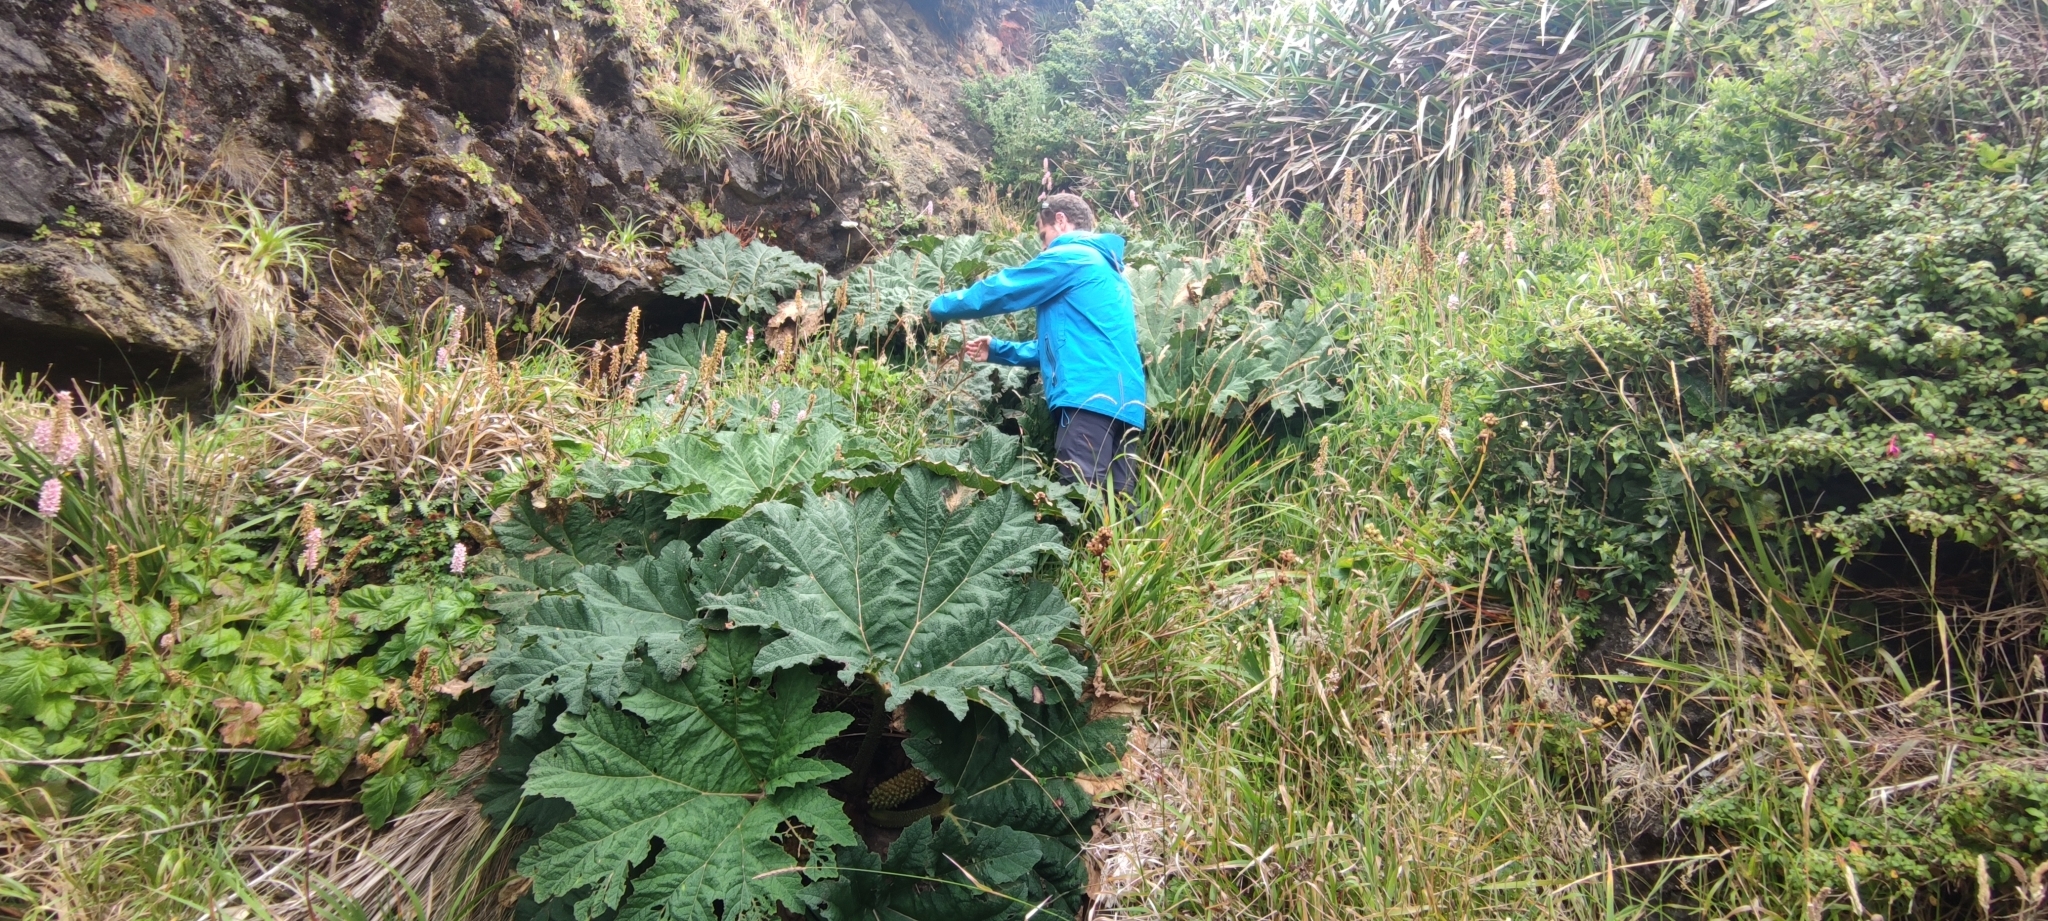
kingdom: Plantae
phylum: Tracheophyta
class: Magnoliopsida
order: Gunnerales
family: Gunneraceae
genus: Gunnera
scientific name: Gunnera tinctoria
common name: Giant-rhubarb
